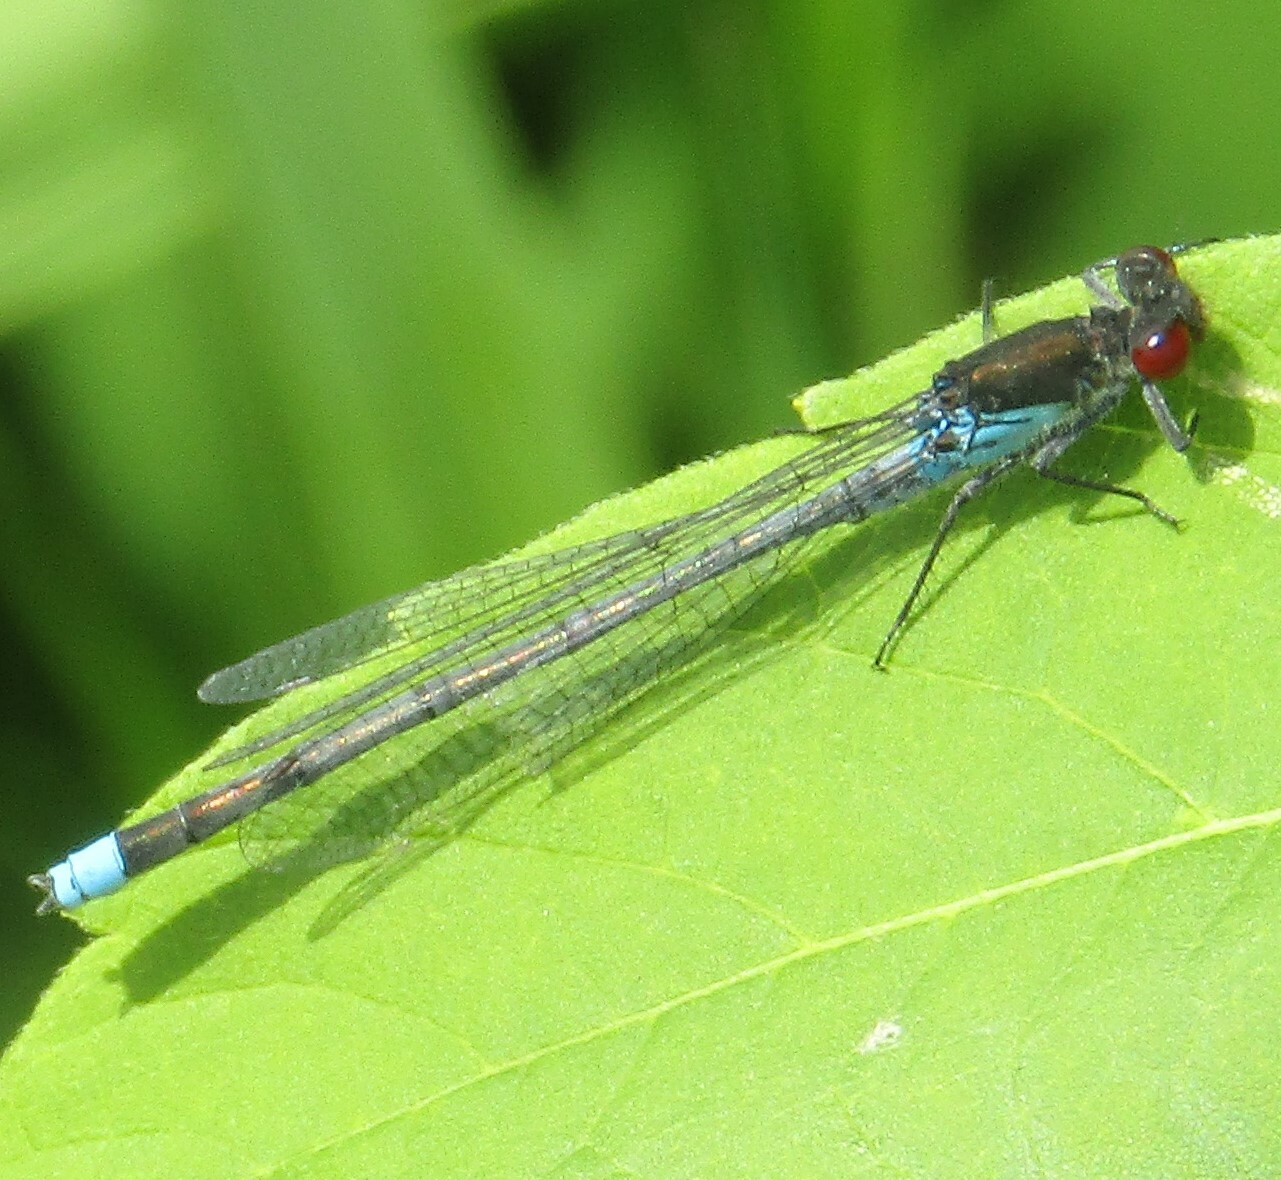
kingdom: Animalia
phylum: Arthropoda
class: Insecta
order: Odonata
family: Coenagrionidae
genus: Erythromma
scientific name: Erythromma najas
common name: Red-eyed damselfly
